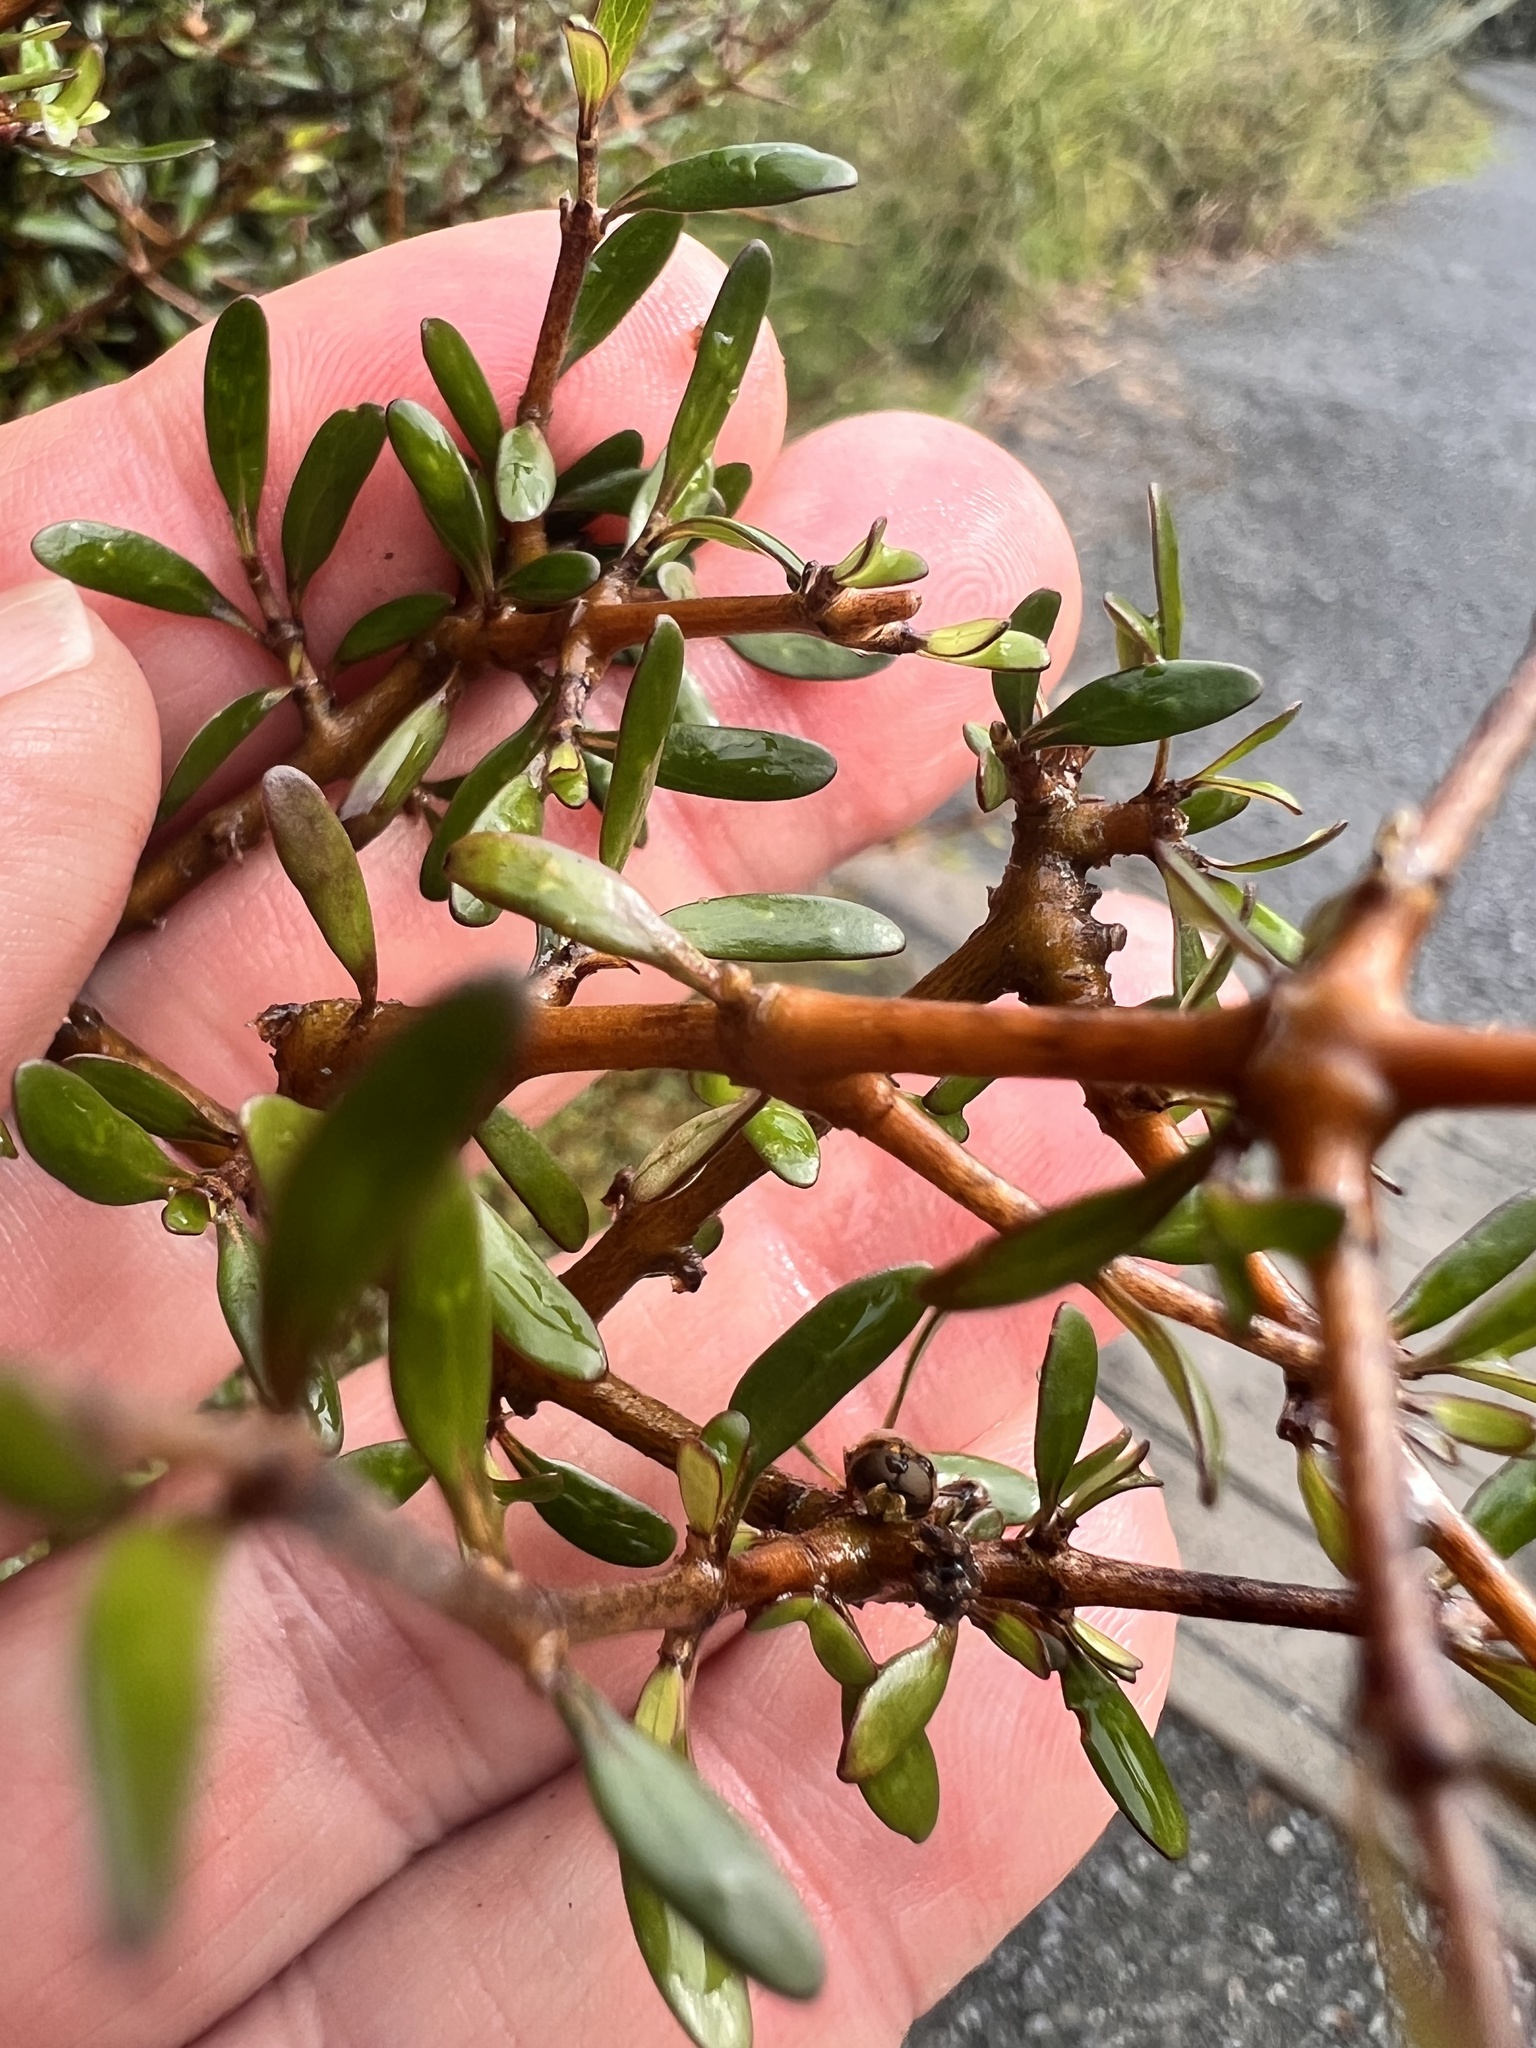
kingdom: Plantae
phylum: Tracheophyta
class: Magnoliopsida
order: Gentianales
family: Rubiaceae
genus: Coprosma
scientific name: Coprosma propinqua
